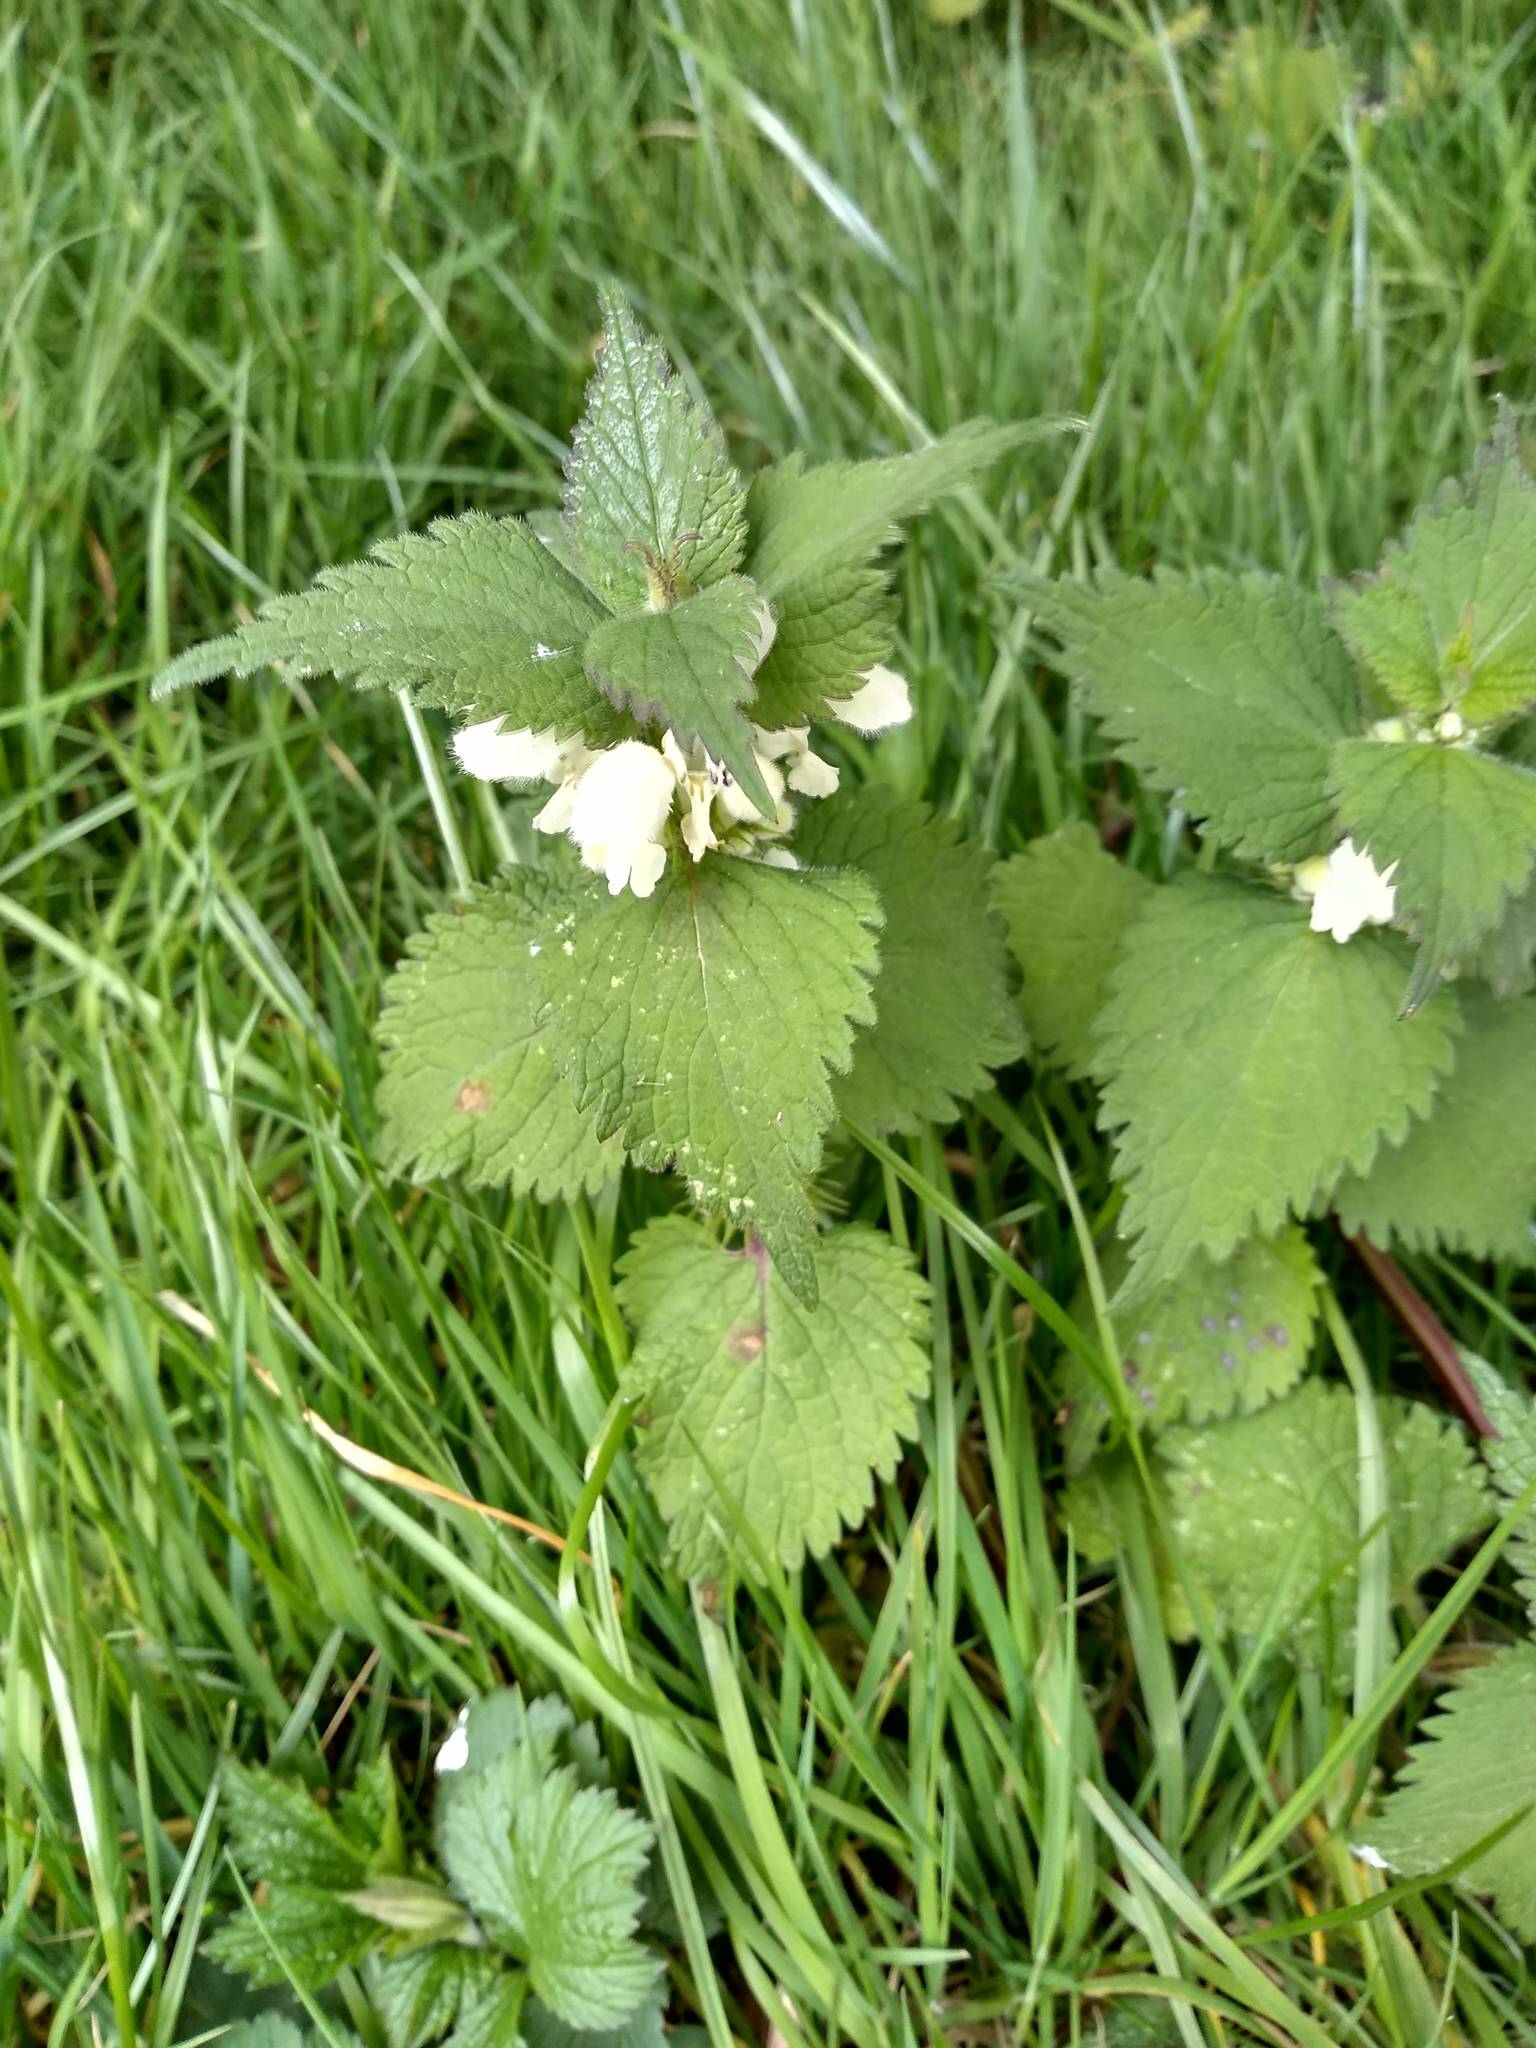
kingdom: Plantae
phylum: Tracheophyta
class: Magnoliopsida
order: Lamiales
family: Lamiaceae
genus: Lamium
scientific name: Lamium album
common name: White dead-nettle
